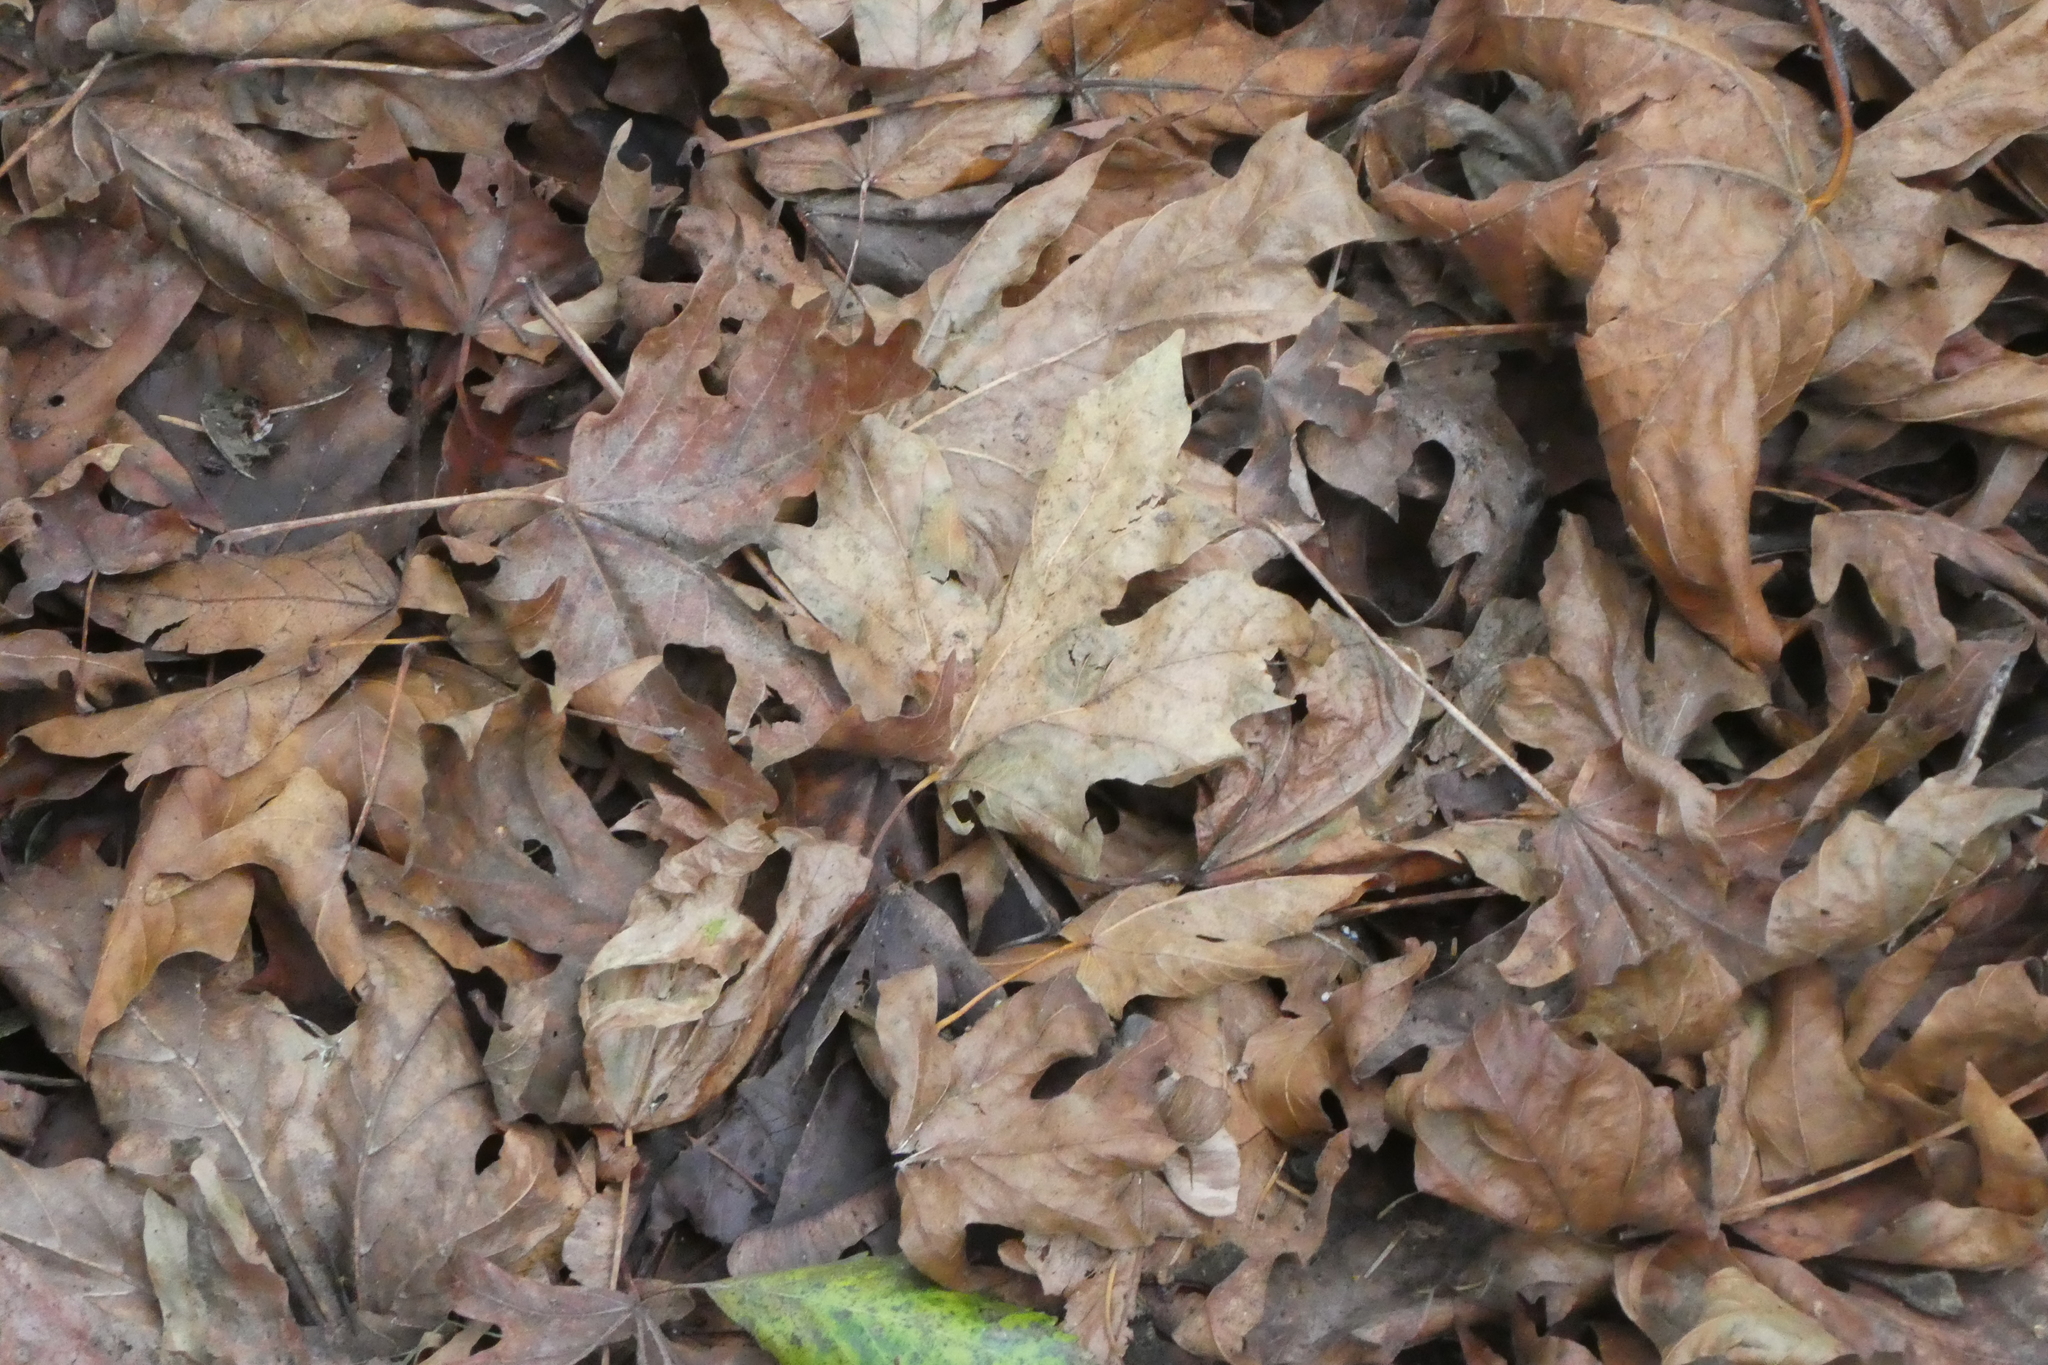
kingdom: Plantae
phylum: Tracheophyta
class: Magnoliopsida
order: Sapindales
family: Sapindaceae
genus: Acer
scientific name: Acer macrophyllum
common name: Oregon maple
